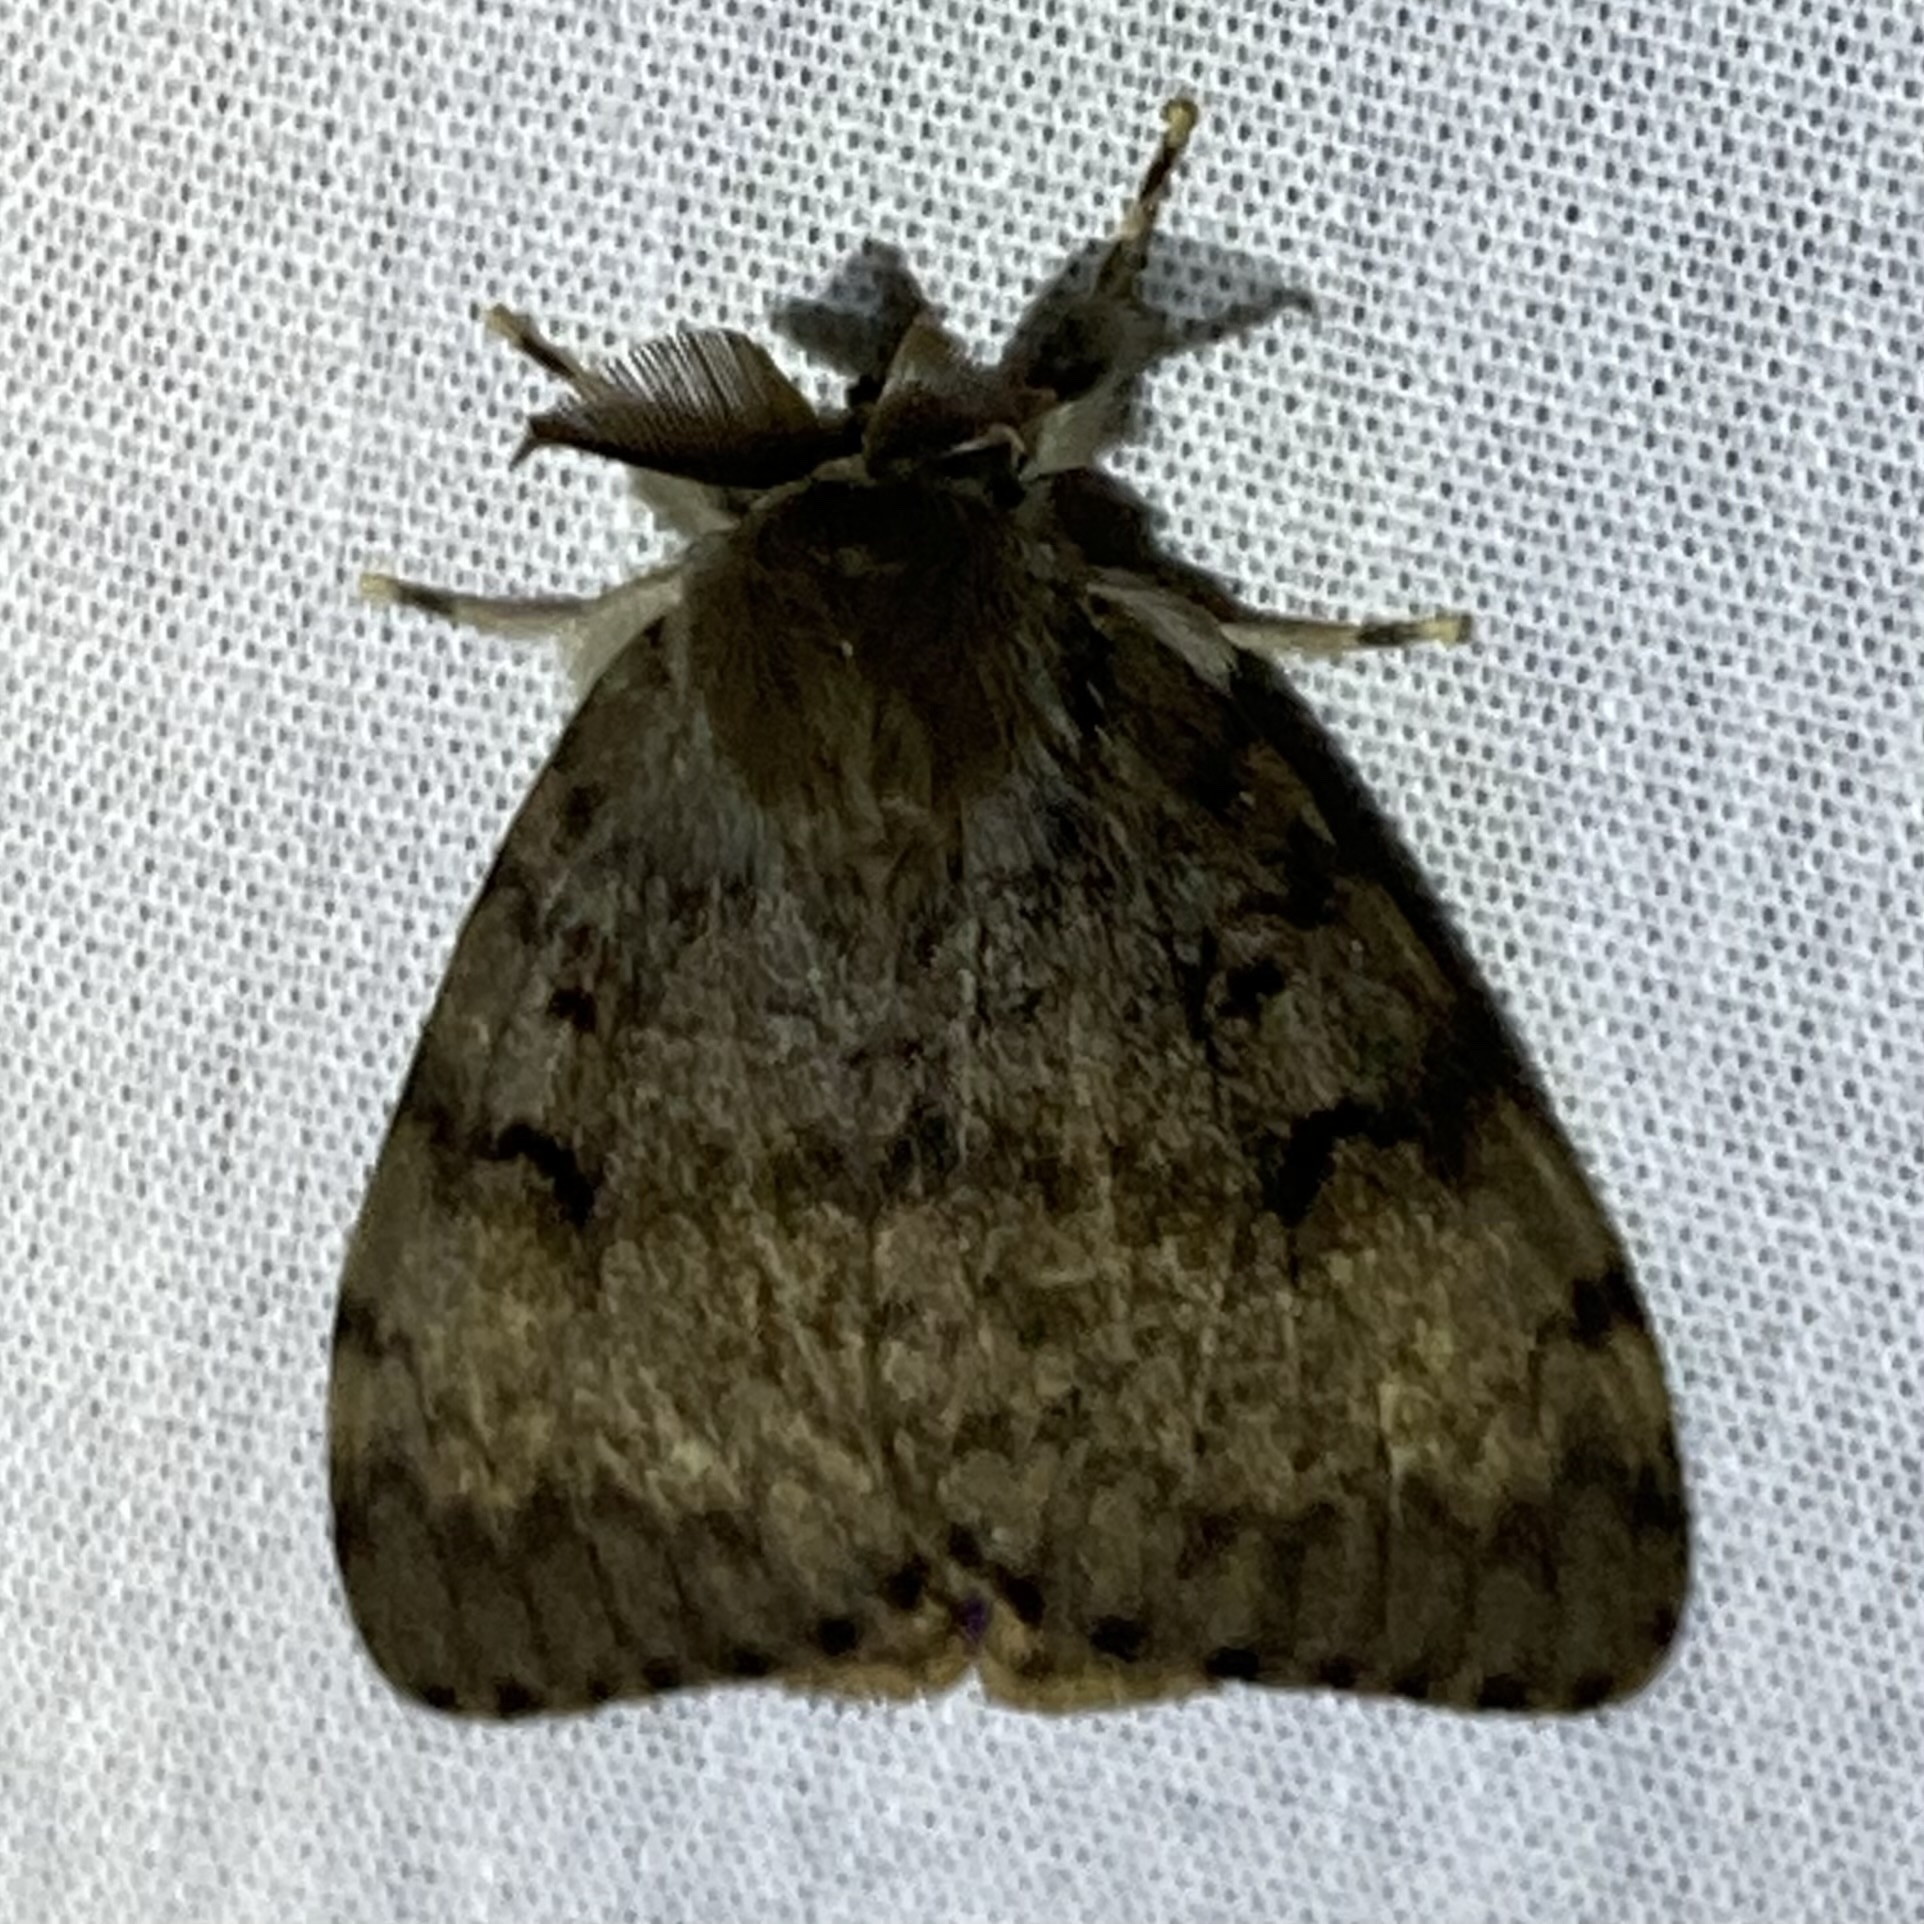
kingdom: Animalia
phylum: Arthropoda
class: Insecta
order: Lepidoptera
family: Erebidae
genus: Lymantria
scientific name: Lymantria dispar
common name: Gypsy moth
